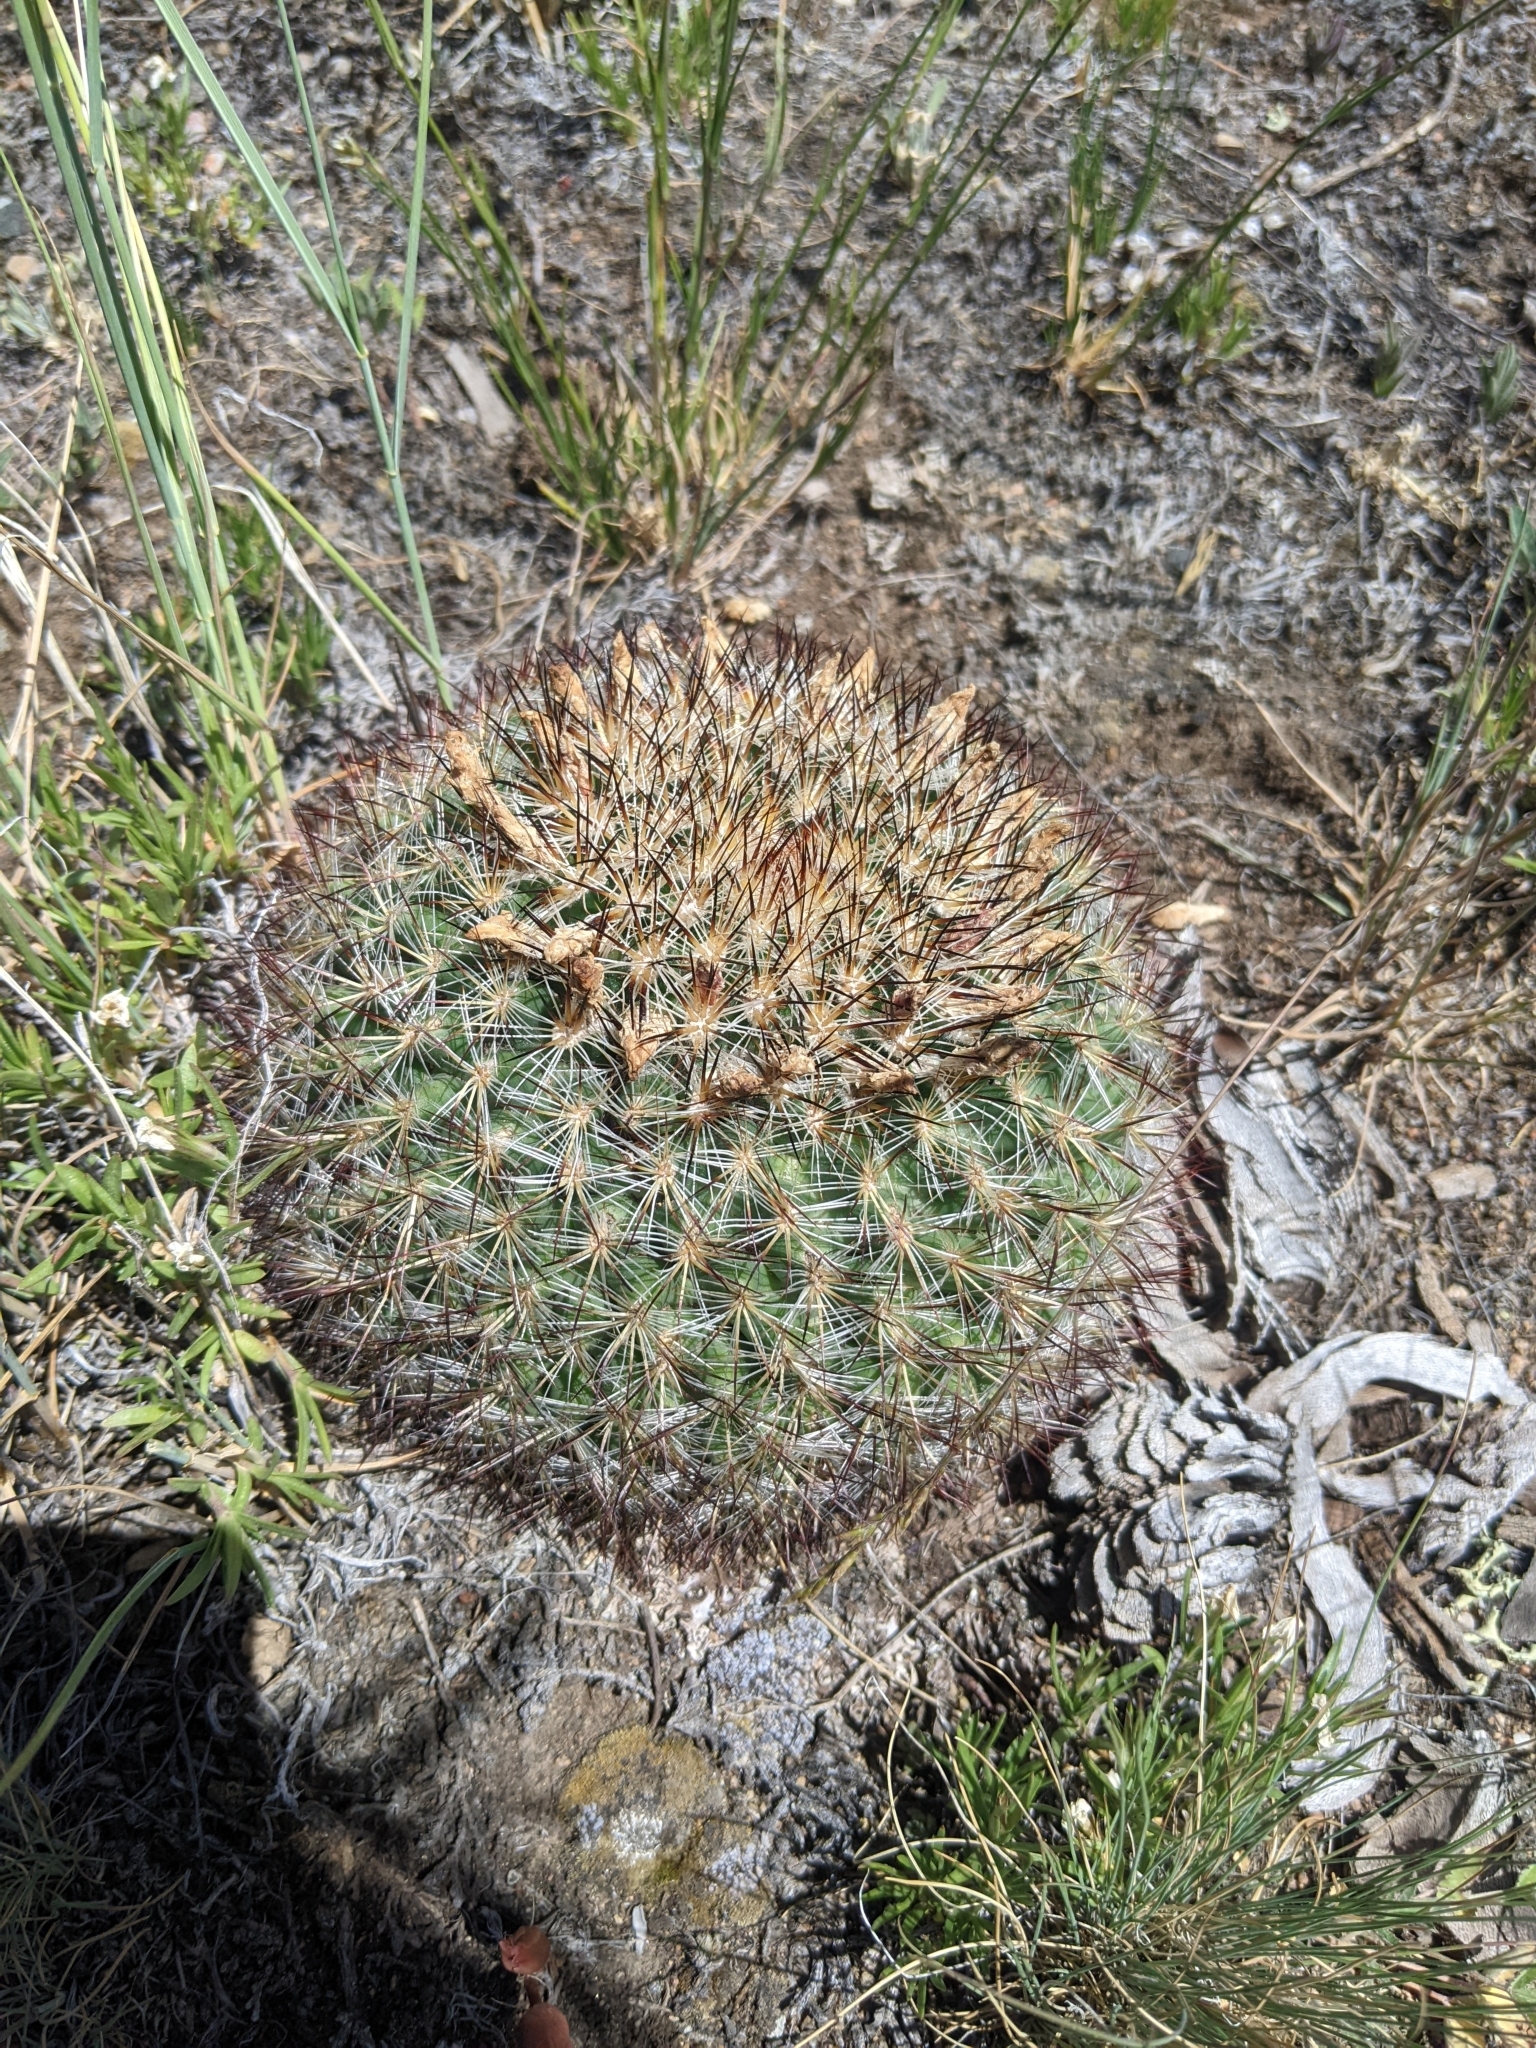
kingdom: Plantae
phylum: Tracheophyta
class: Magnoliopsida
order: Caryophyllales
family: Cactaceae
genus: Pediocactus
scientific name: Pediocactus simpsonii
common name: Simpson's hedgehog cactus
